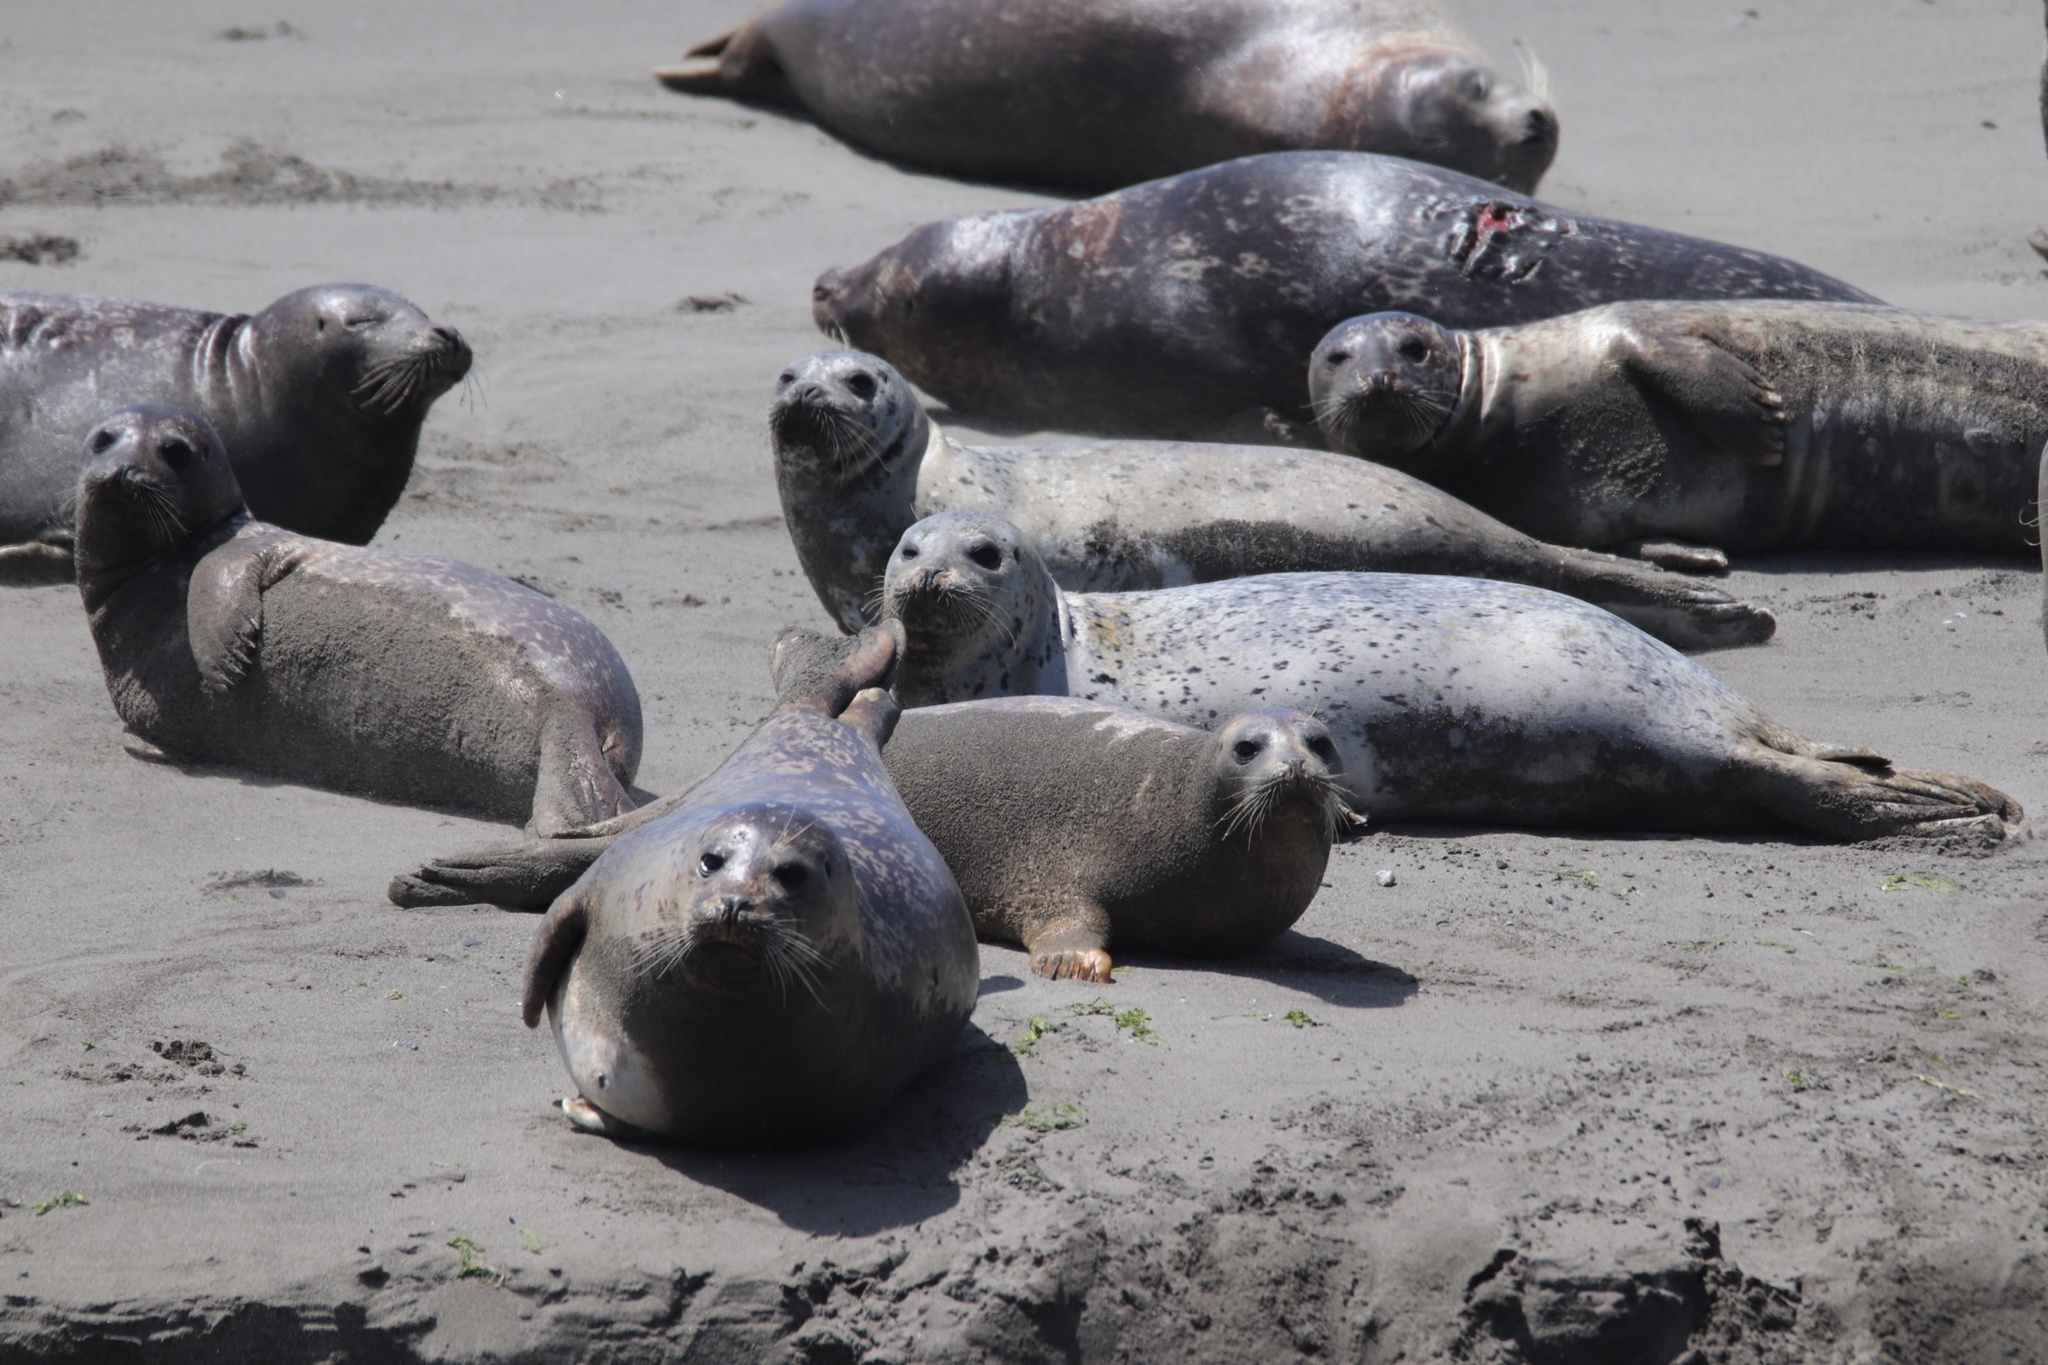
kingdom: Animalia
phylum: Chordata
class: Mammalia
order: Carnivora
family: Phocidae
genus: Phoca
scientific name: Phoca vitulina
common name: Harbor seal
